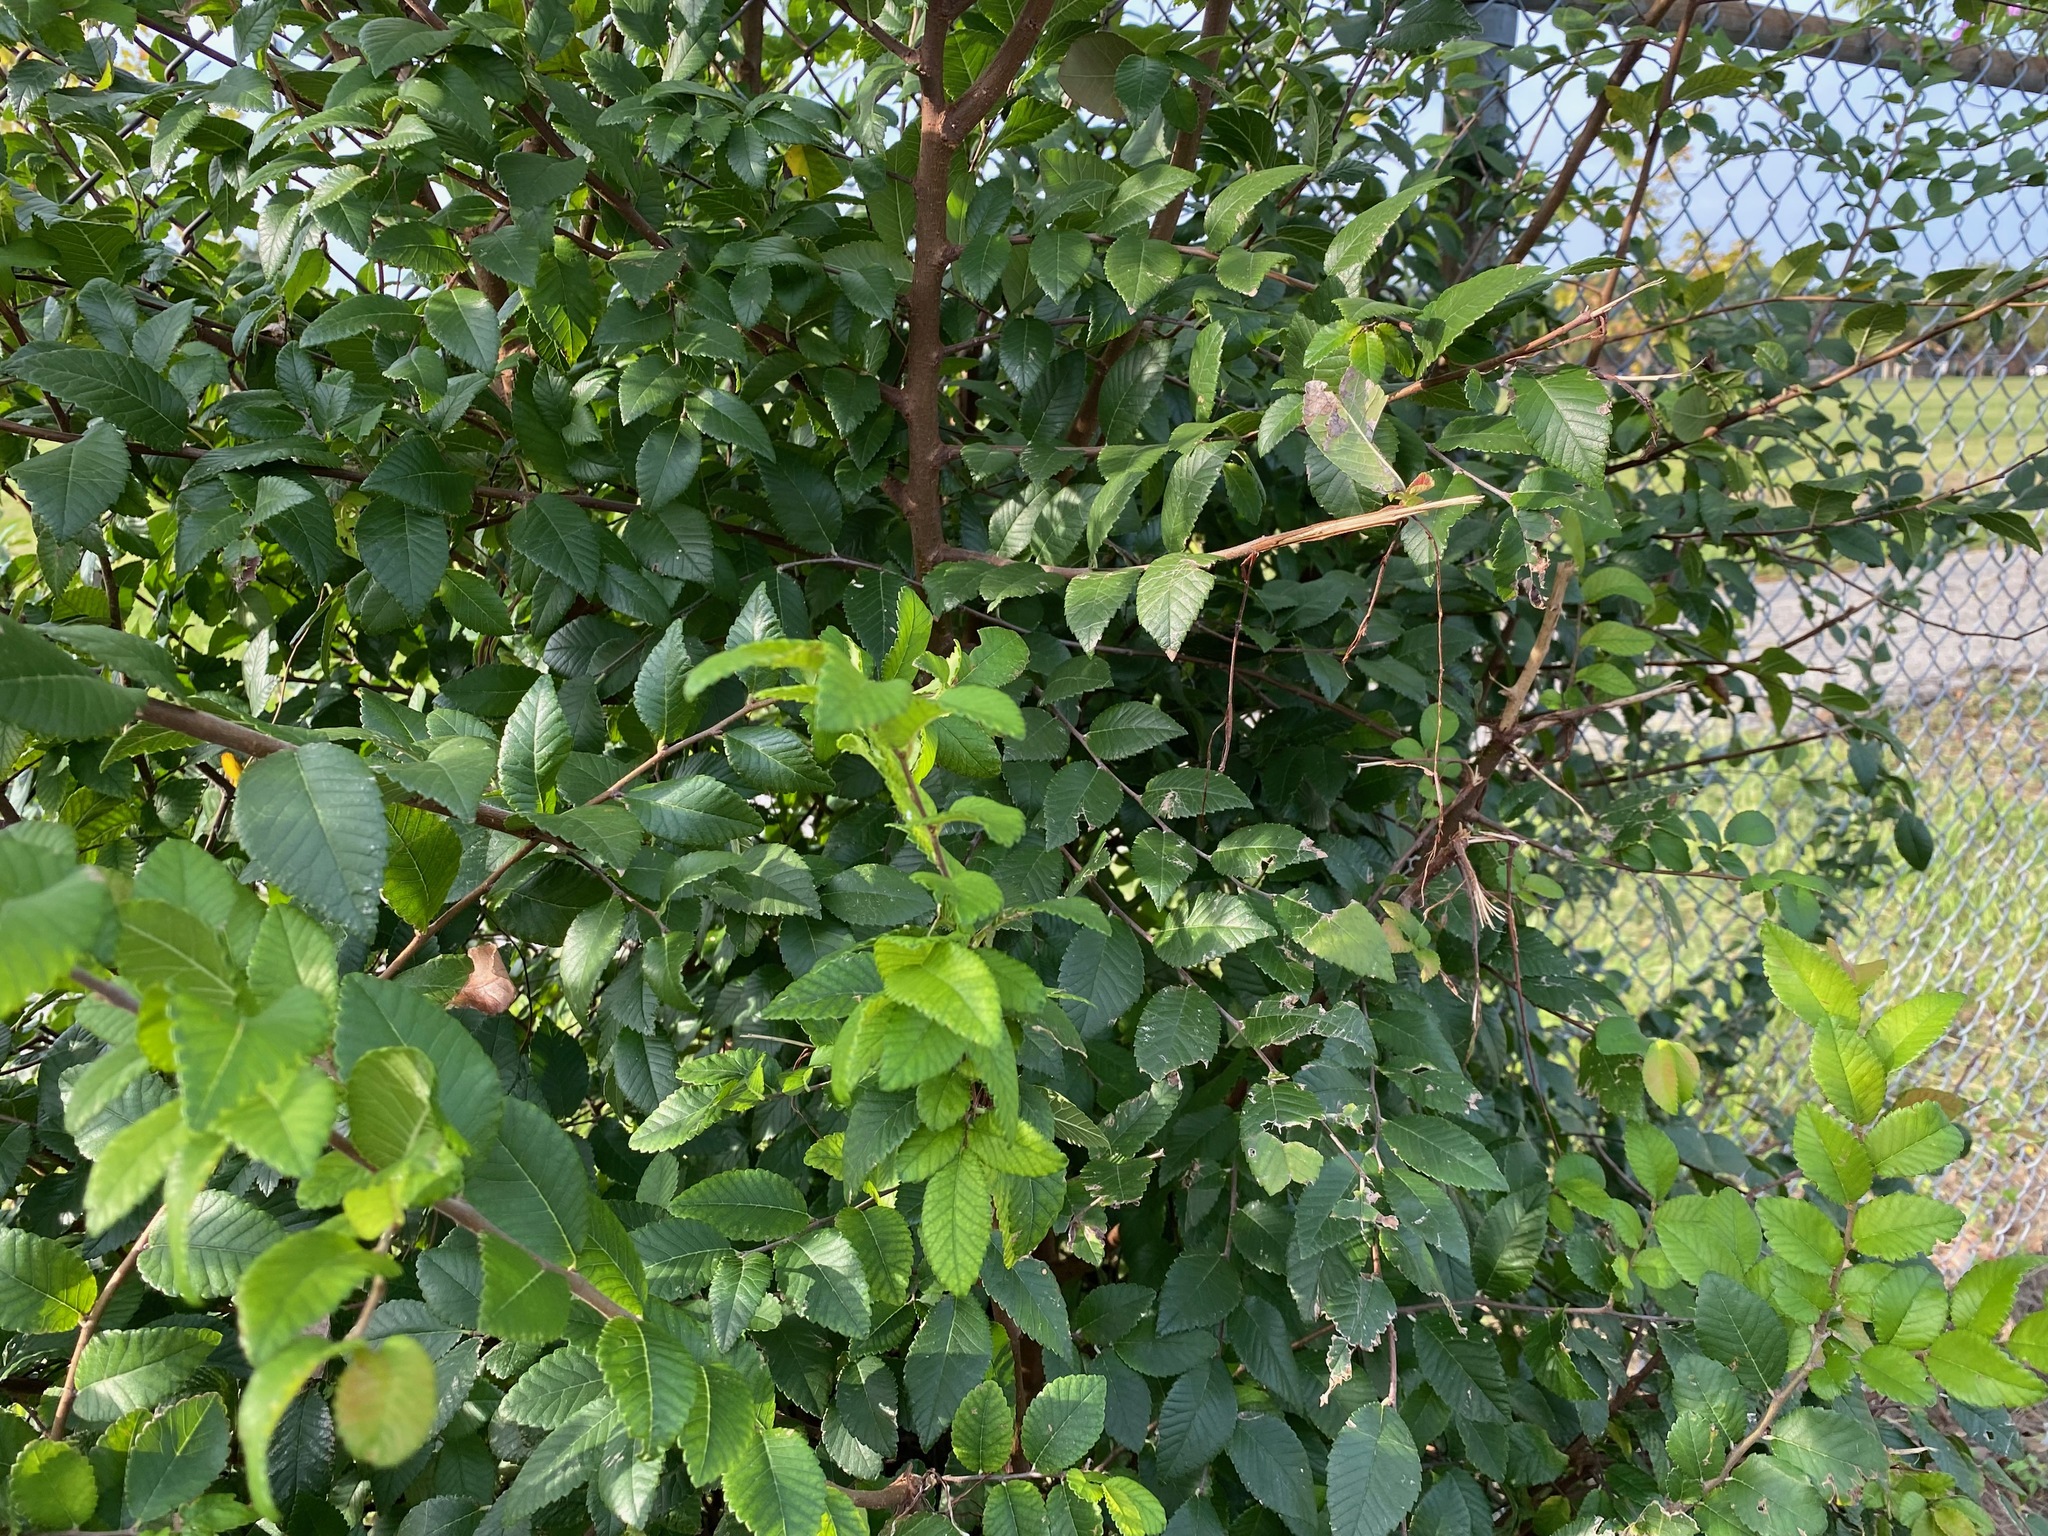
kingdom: Plantae
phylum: Tracheophyta
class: Magnoliopsida
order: Rosales
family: Ulmaceae
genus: Ulmus
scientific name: Ulmus crassifolia
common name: Basket elm
